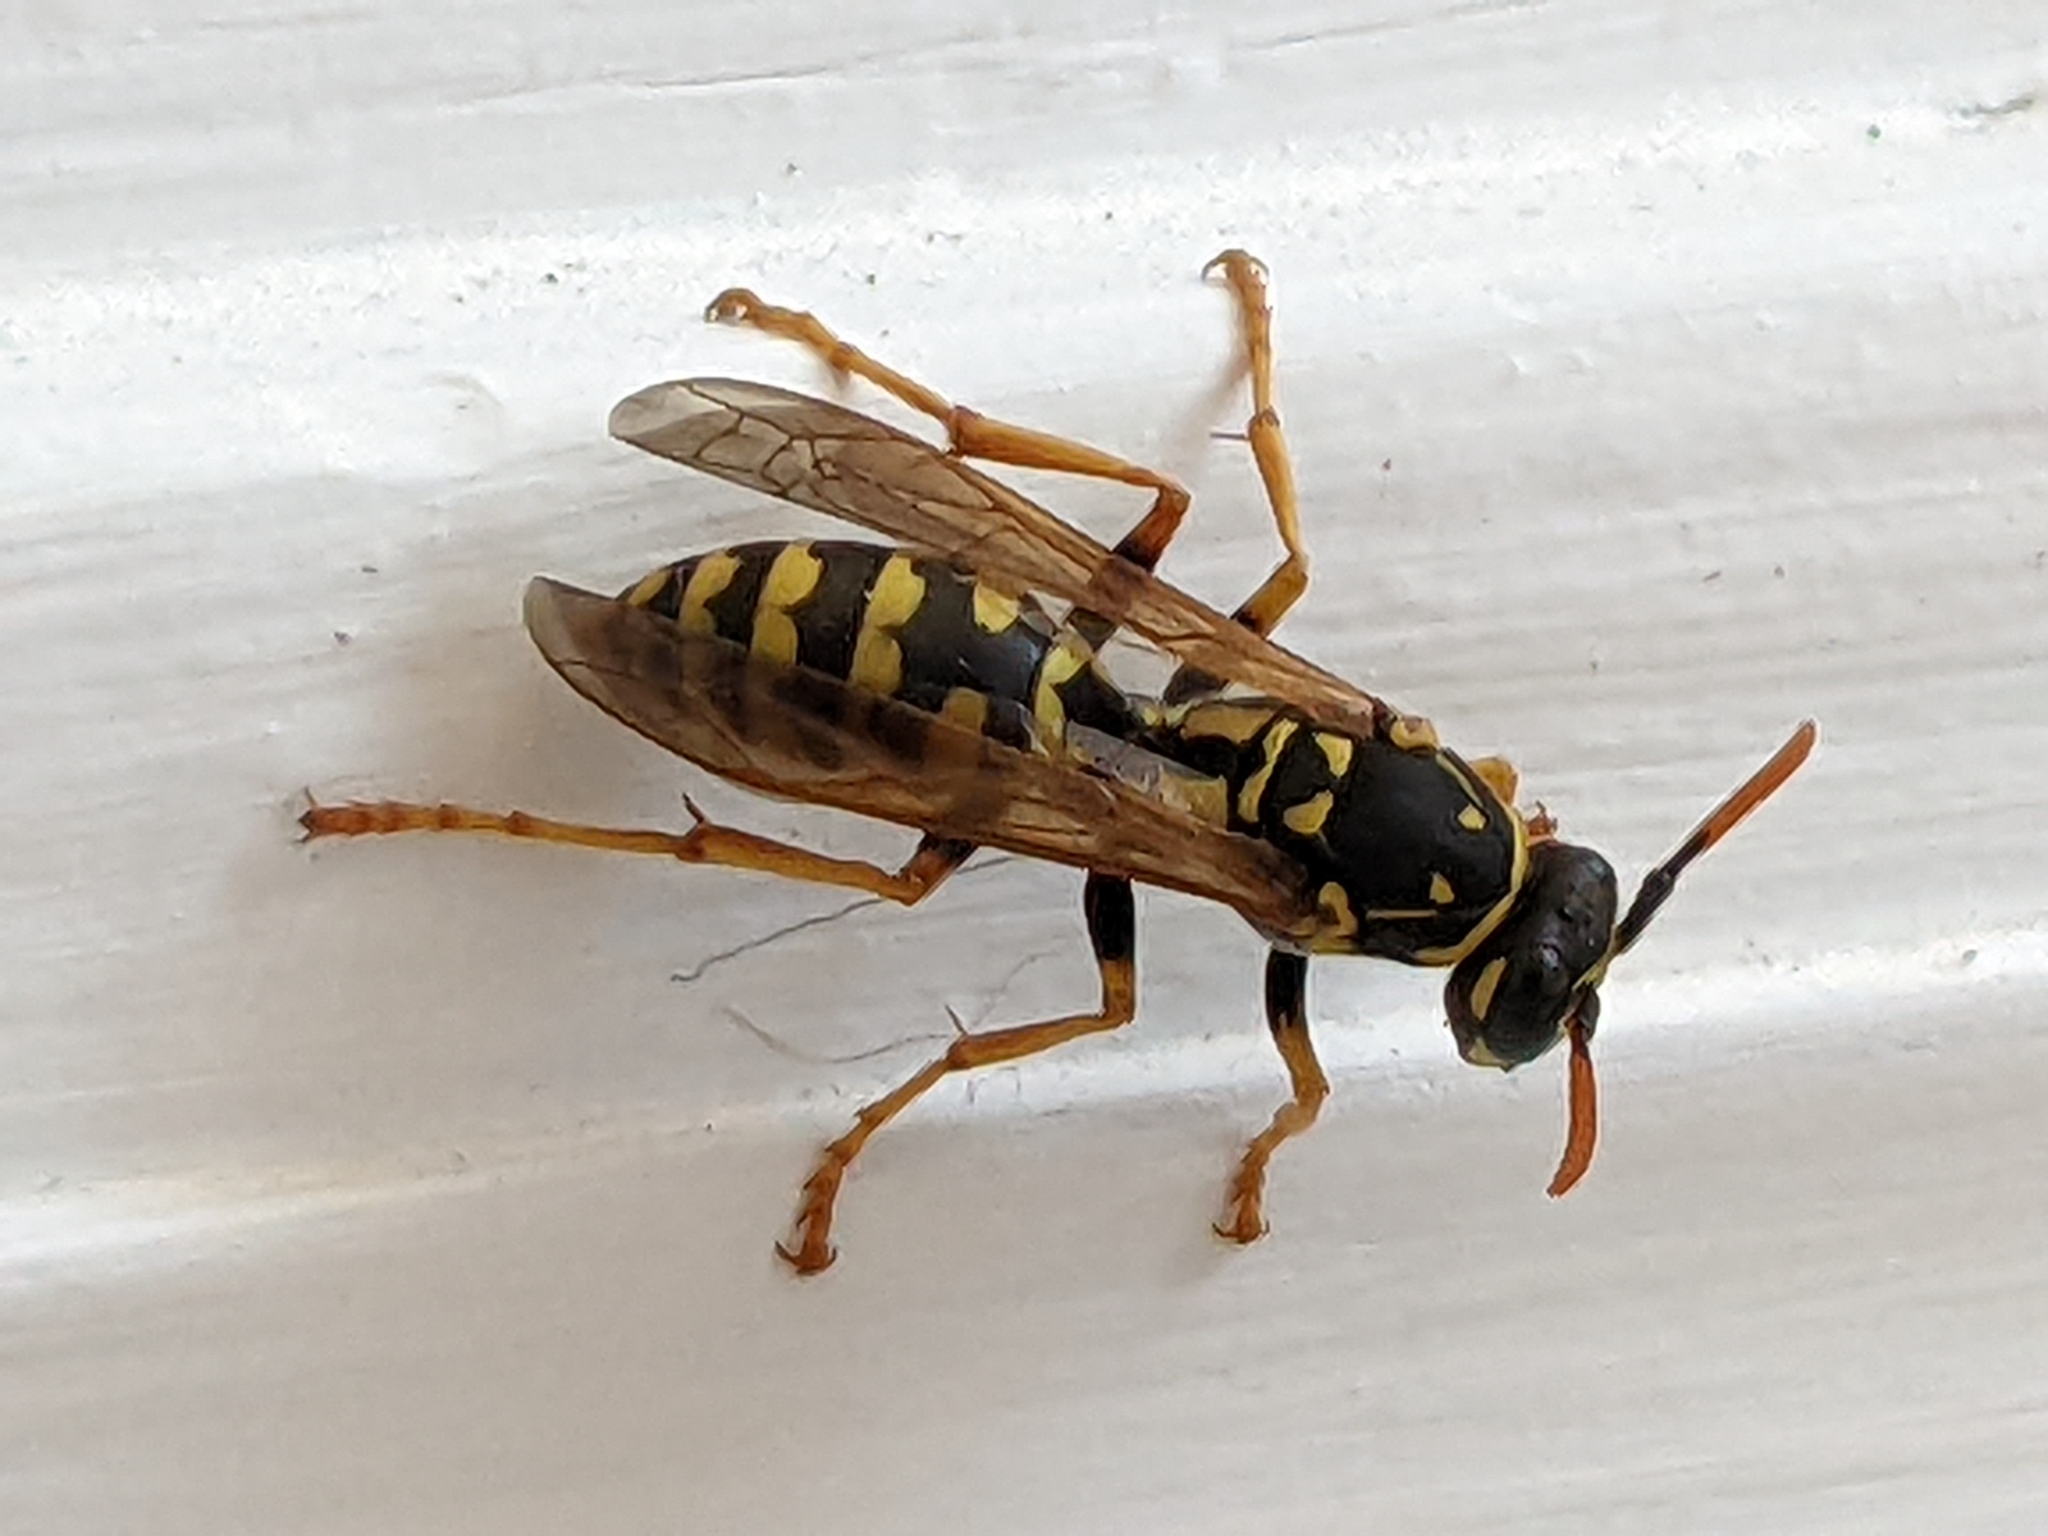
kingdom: Animalia
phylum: Arthropoda
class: Insecta
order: Hymenoptera
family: Eumenidae
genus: Polistes
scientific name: Polistes dominula
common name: Paper wasp
